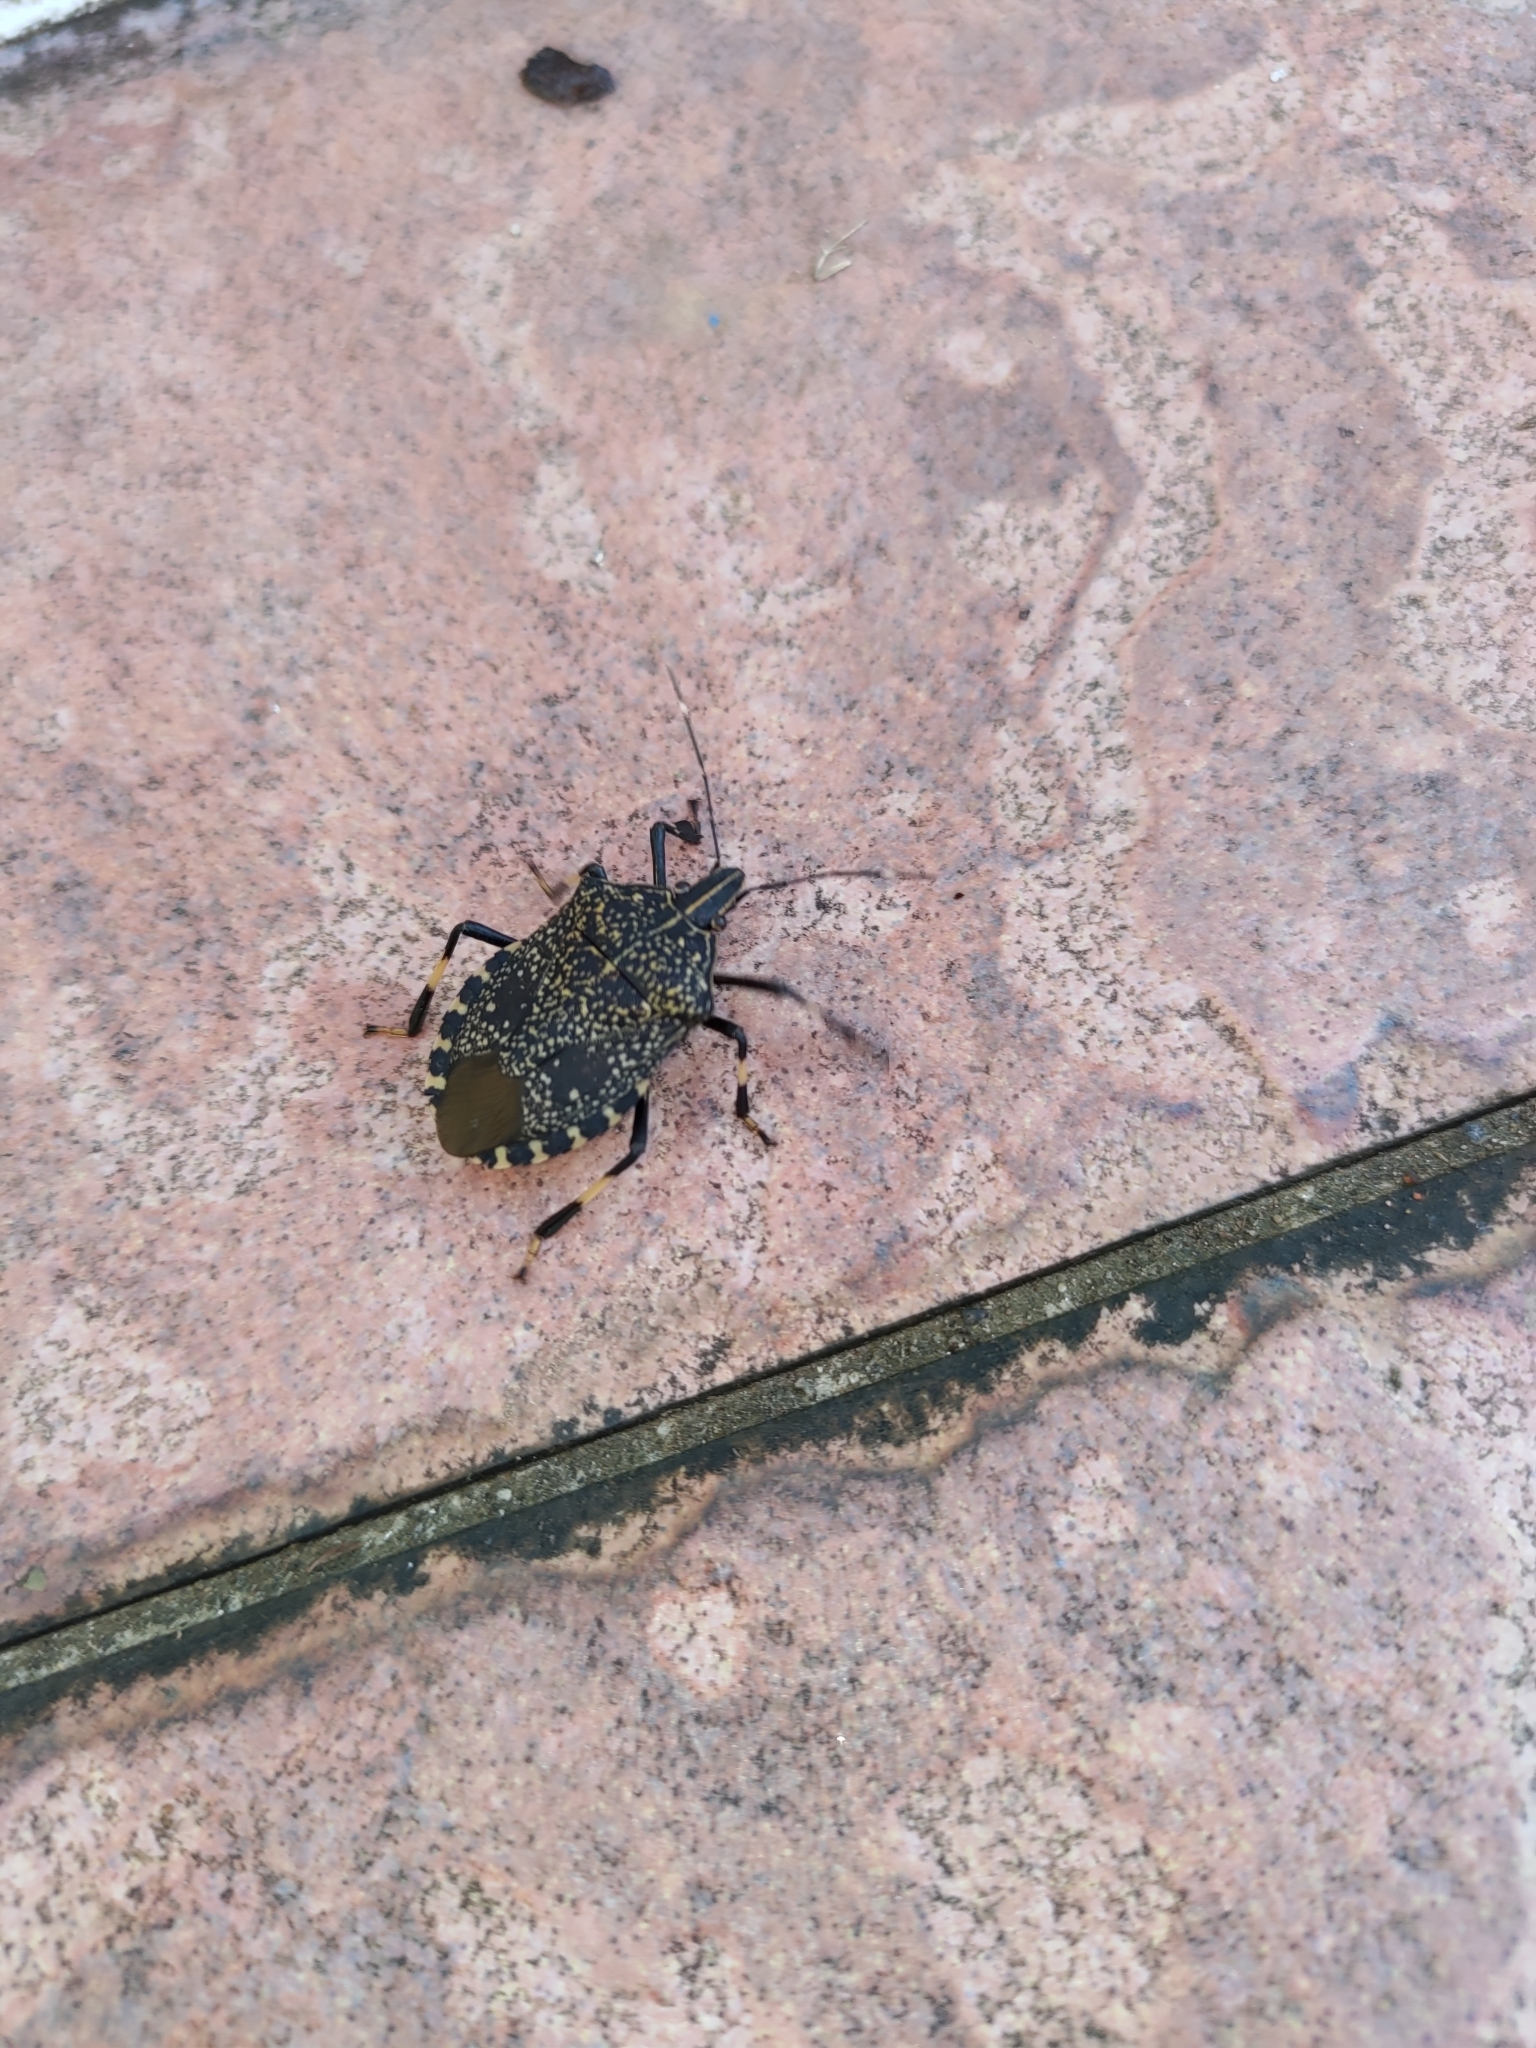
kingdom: Animalia
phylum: Arthropoda
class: Insecta
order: Hemiptera
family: Pentatomidae
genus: Erthesina
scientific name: Erthesina fullo
